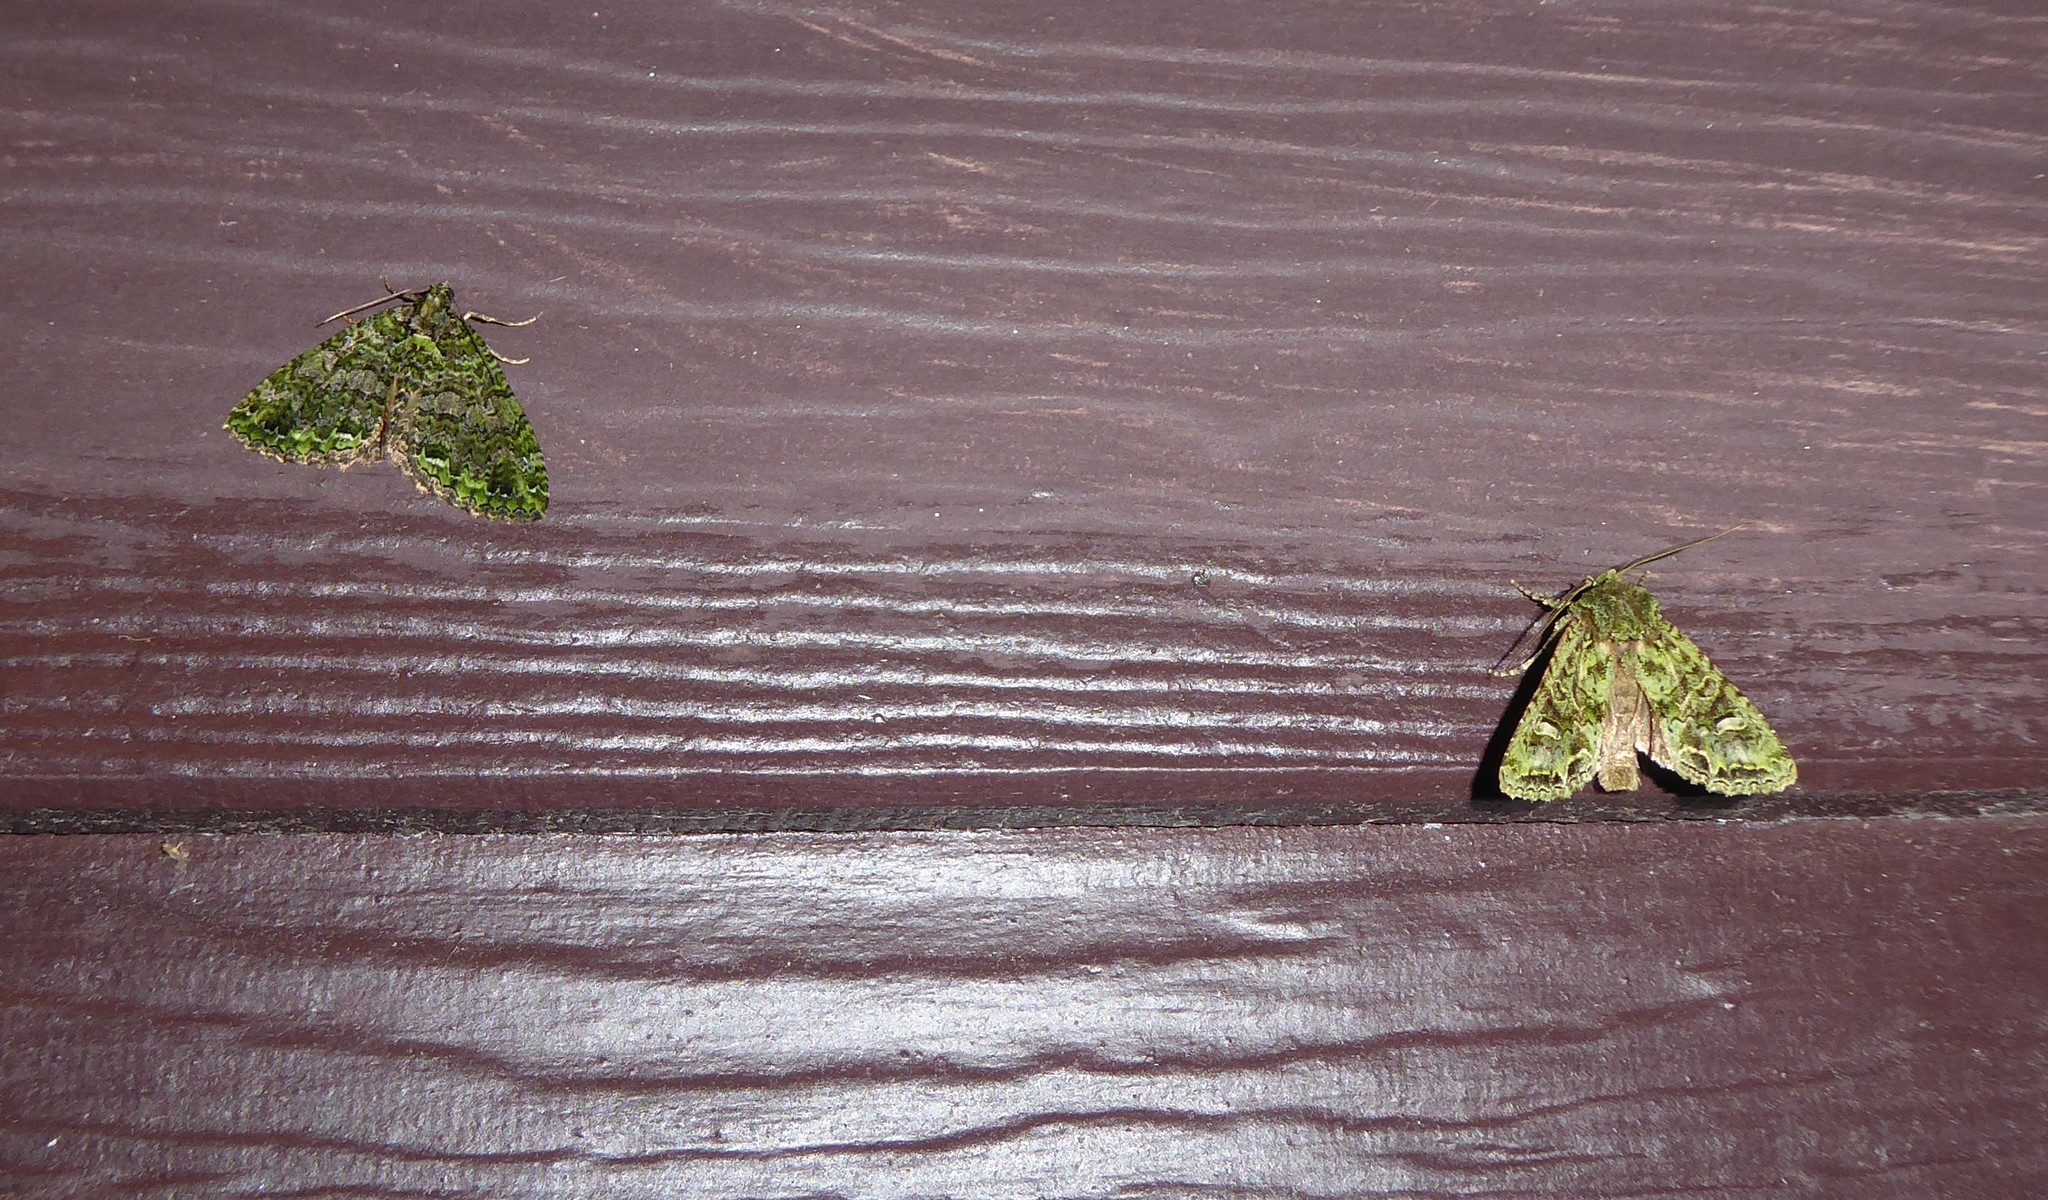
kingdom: Animalia
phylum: Arthropoda
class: Insecta
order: Lepidoptera
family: Noctuidae
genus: Ichneutica
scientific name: Ichneutica
